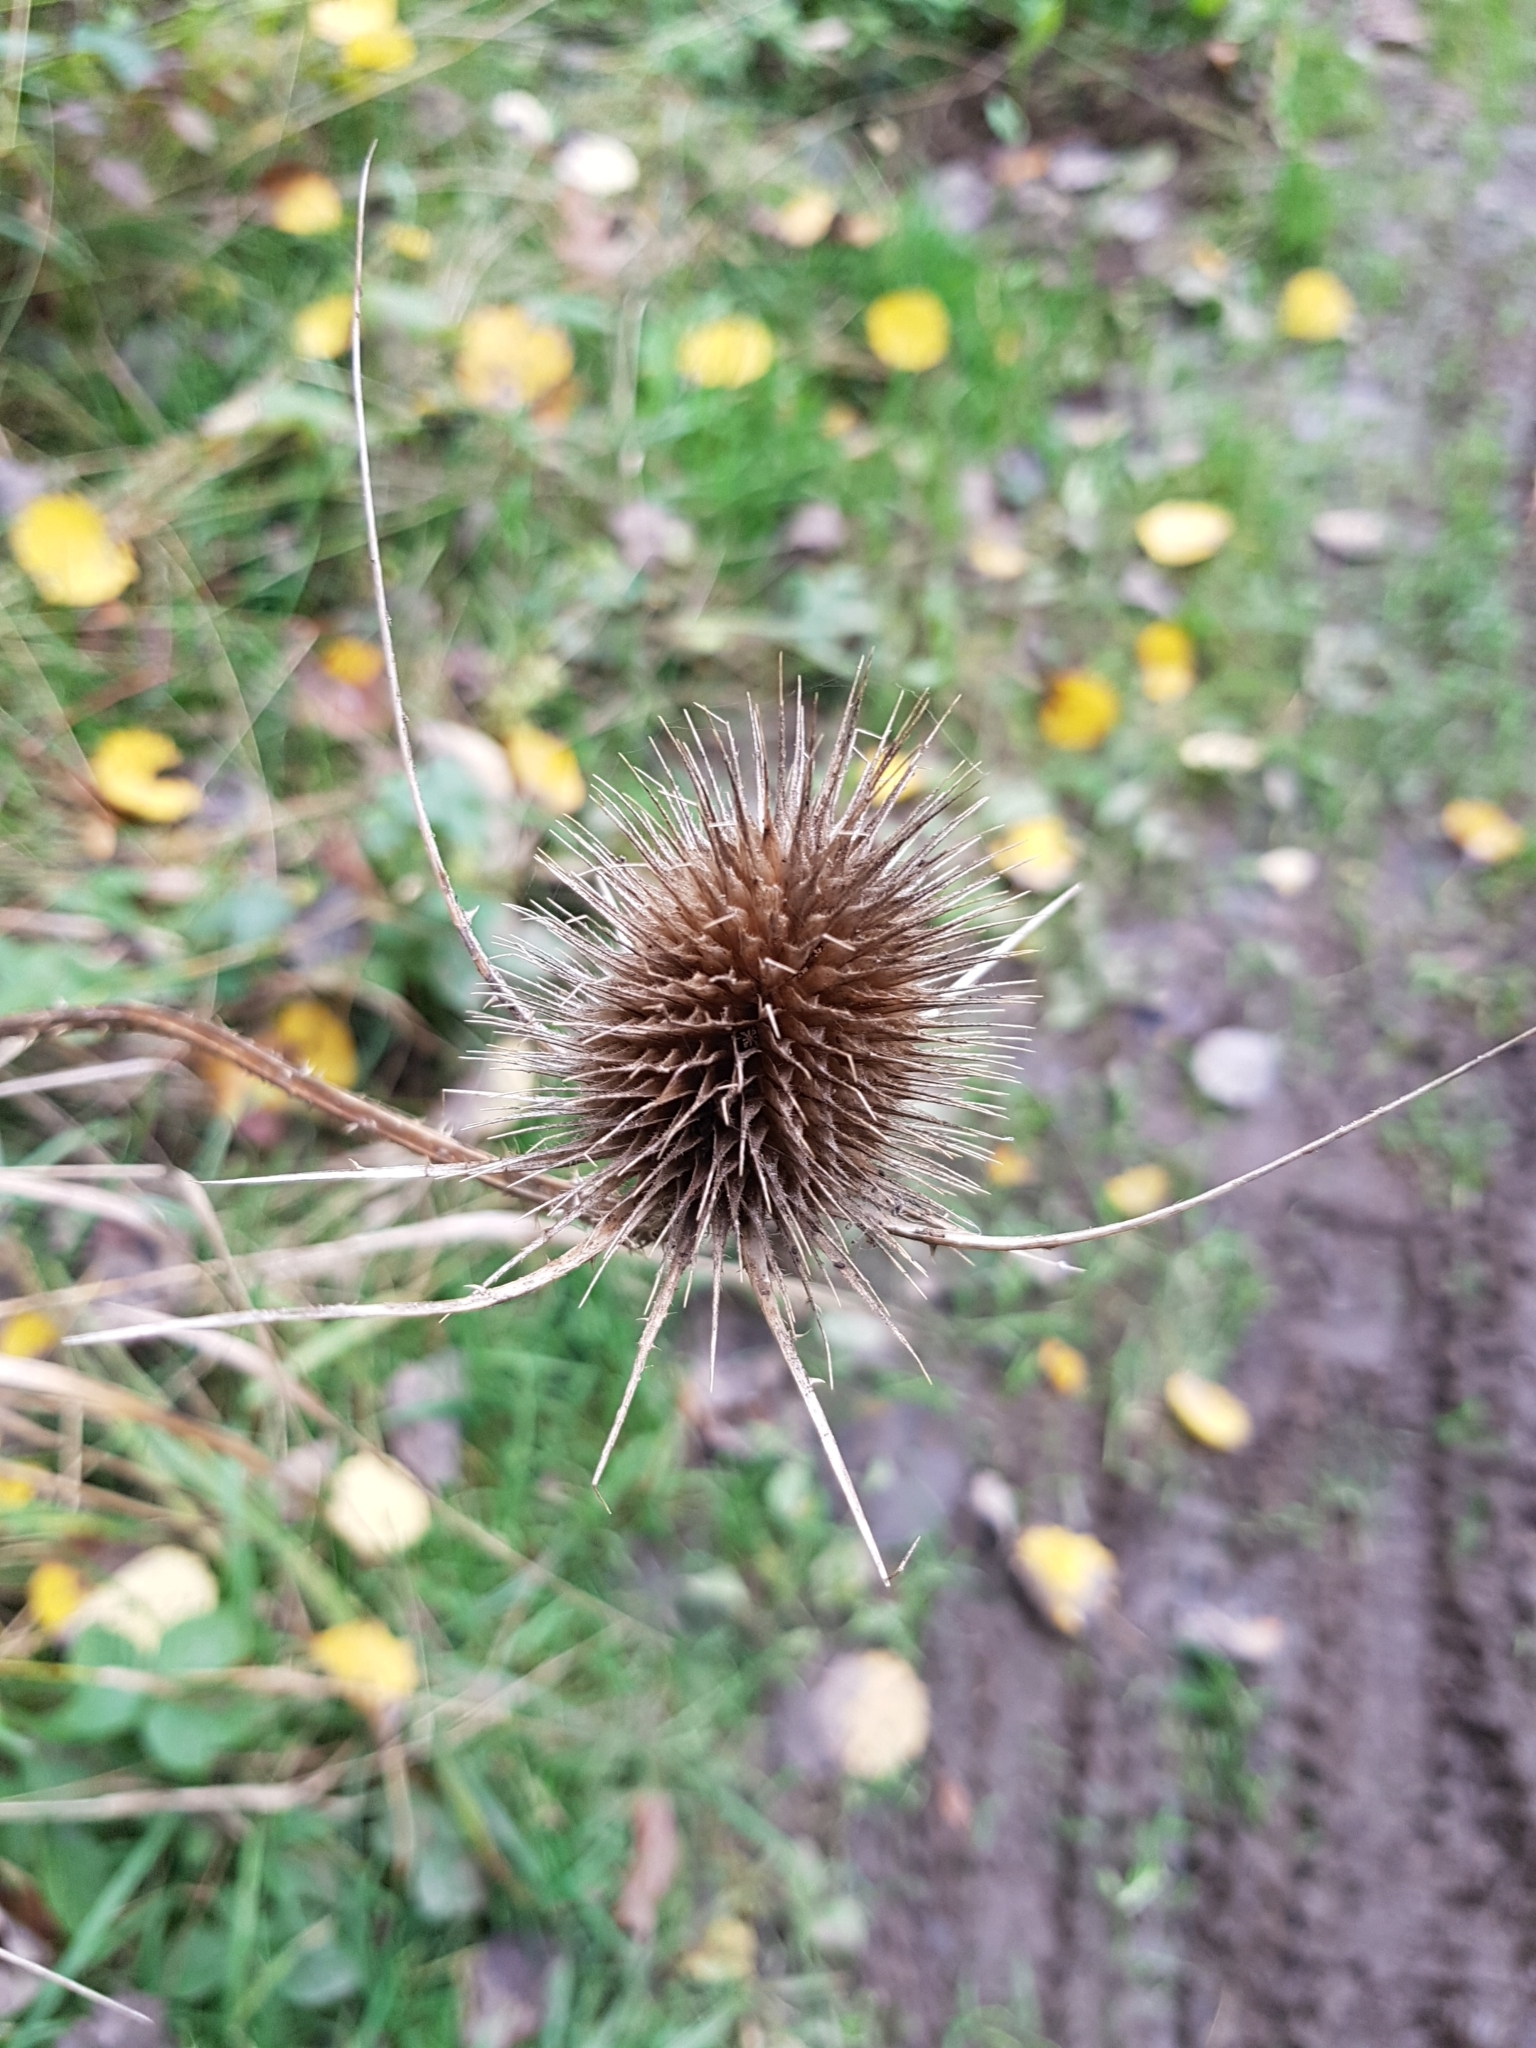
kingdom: Plantae
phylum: Tracheophyta
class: Magnoliopsida
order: Dipsacales
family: Caprifoliaceae
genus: Dipsacus
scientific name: Dipsacus fullonum
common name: Teasel
